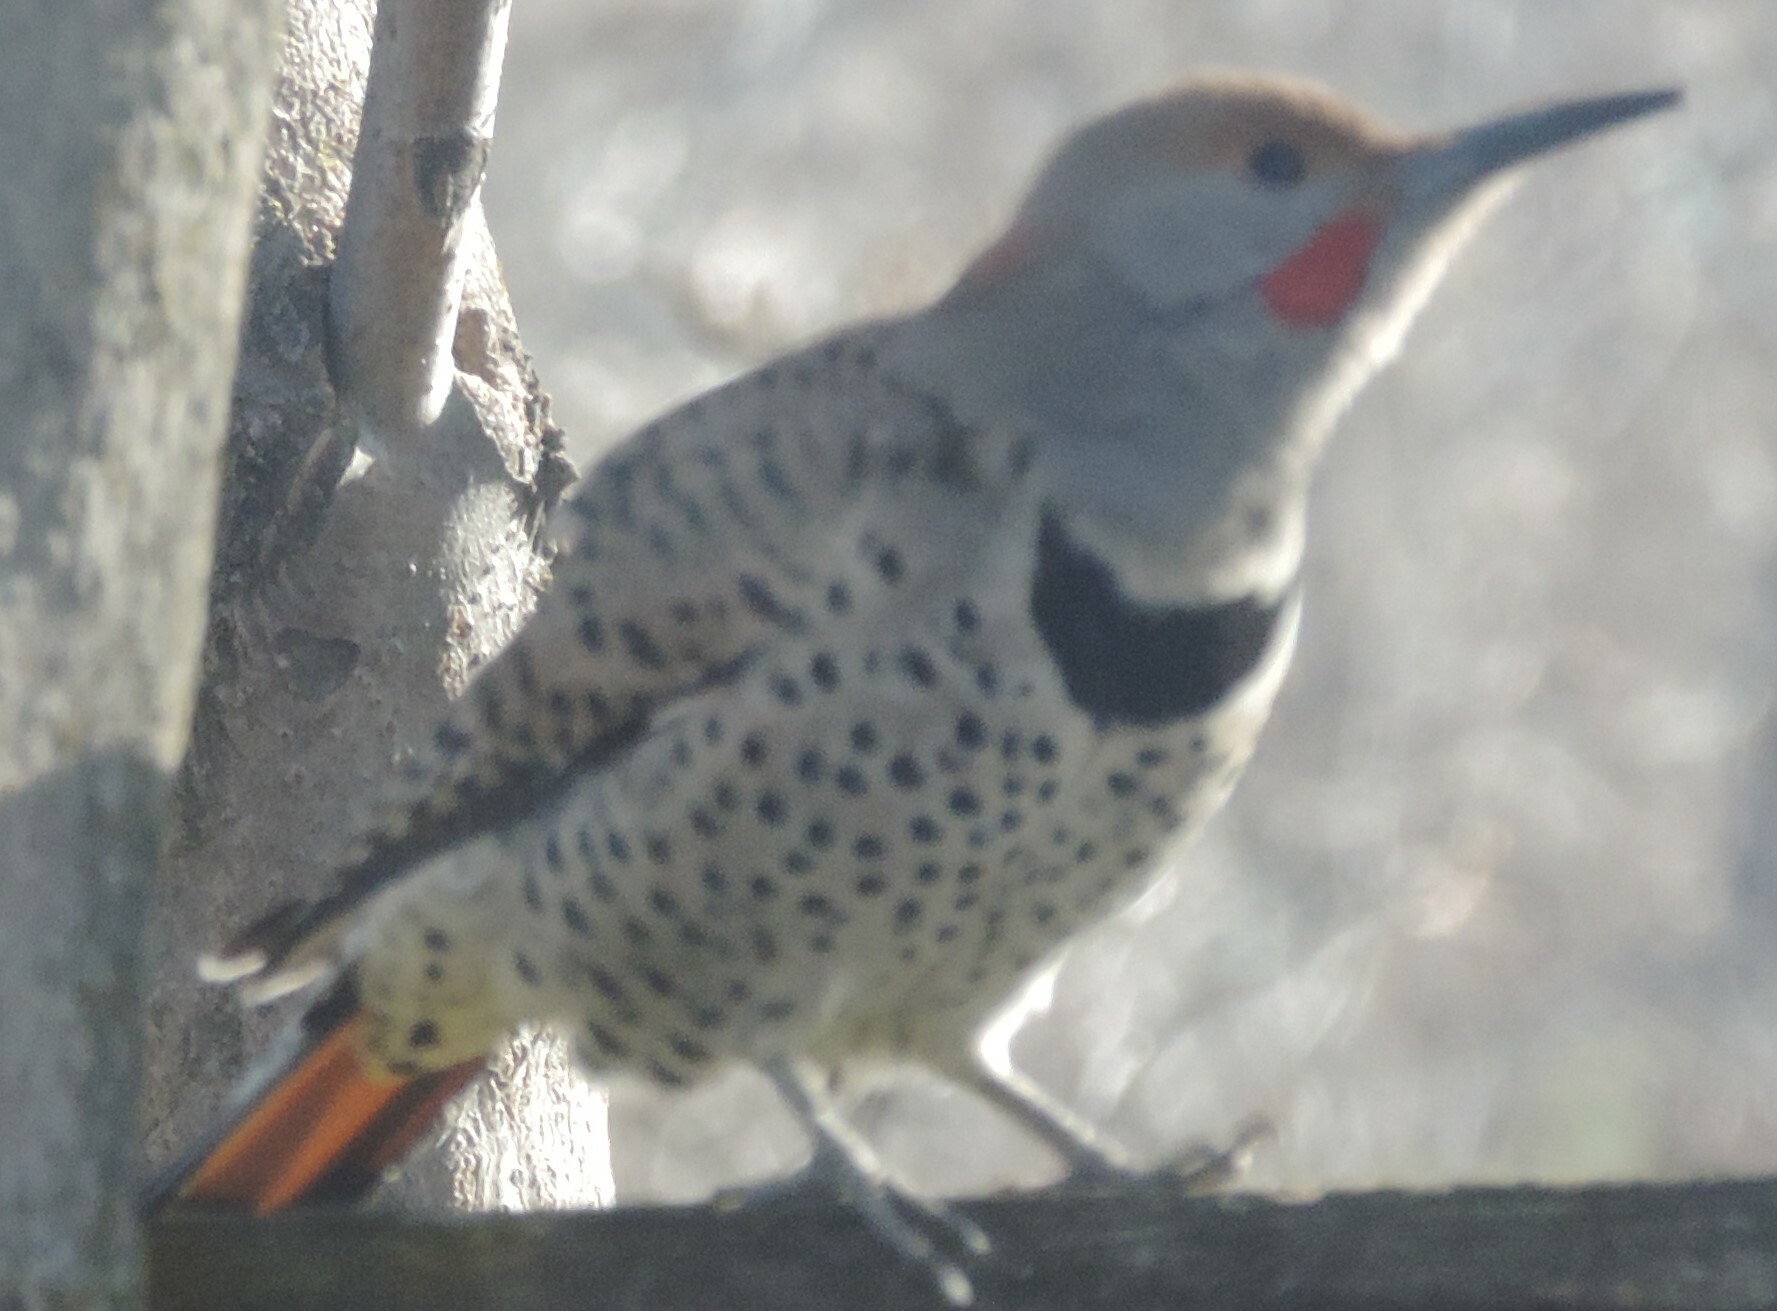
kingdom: Animalia
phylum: Chordata
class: Aves
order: Piciformes
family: Picidae
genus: Colaptes
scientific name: Colaptes
